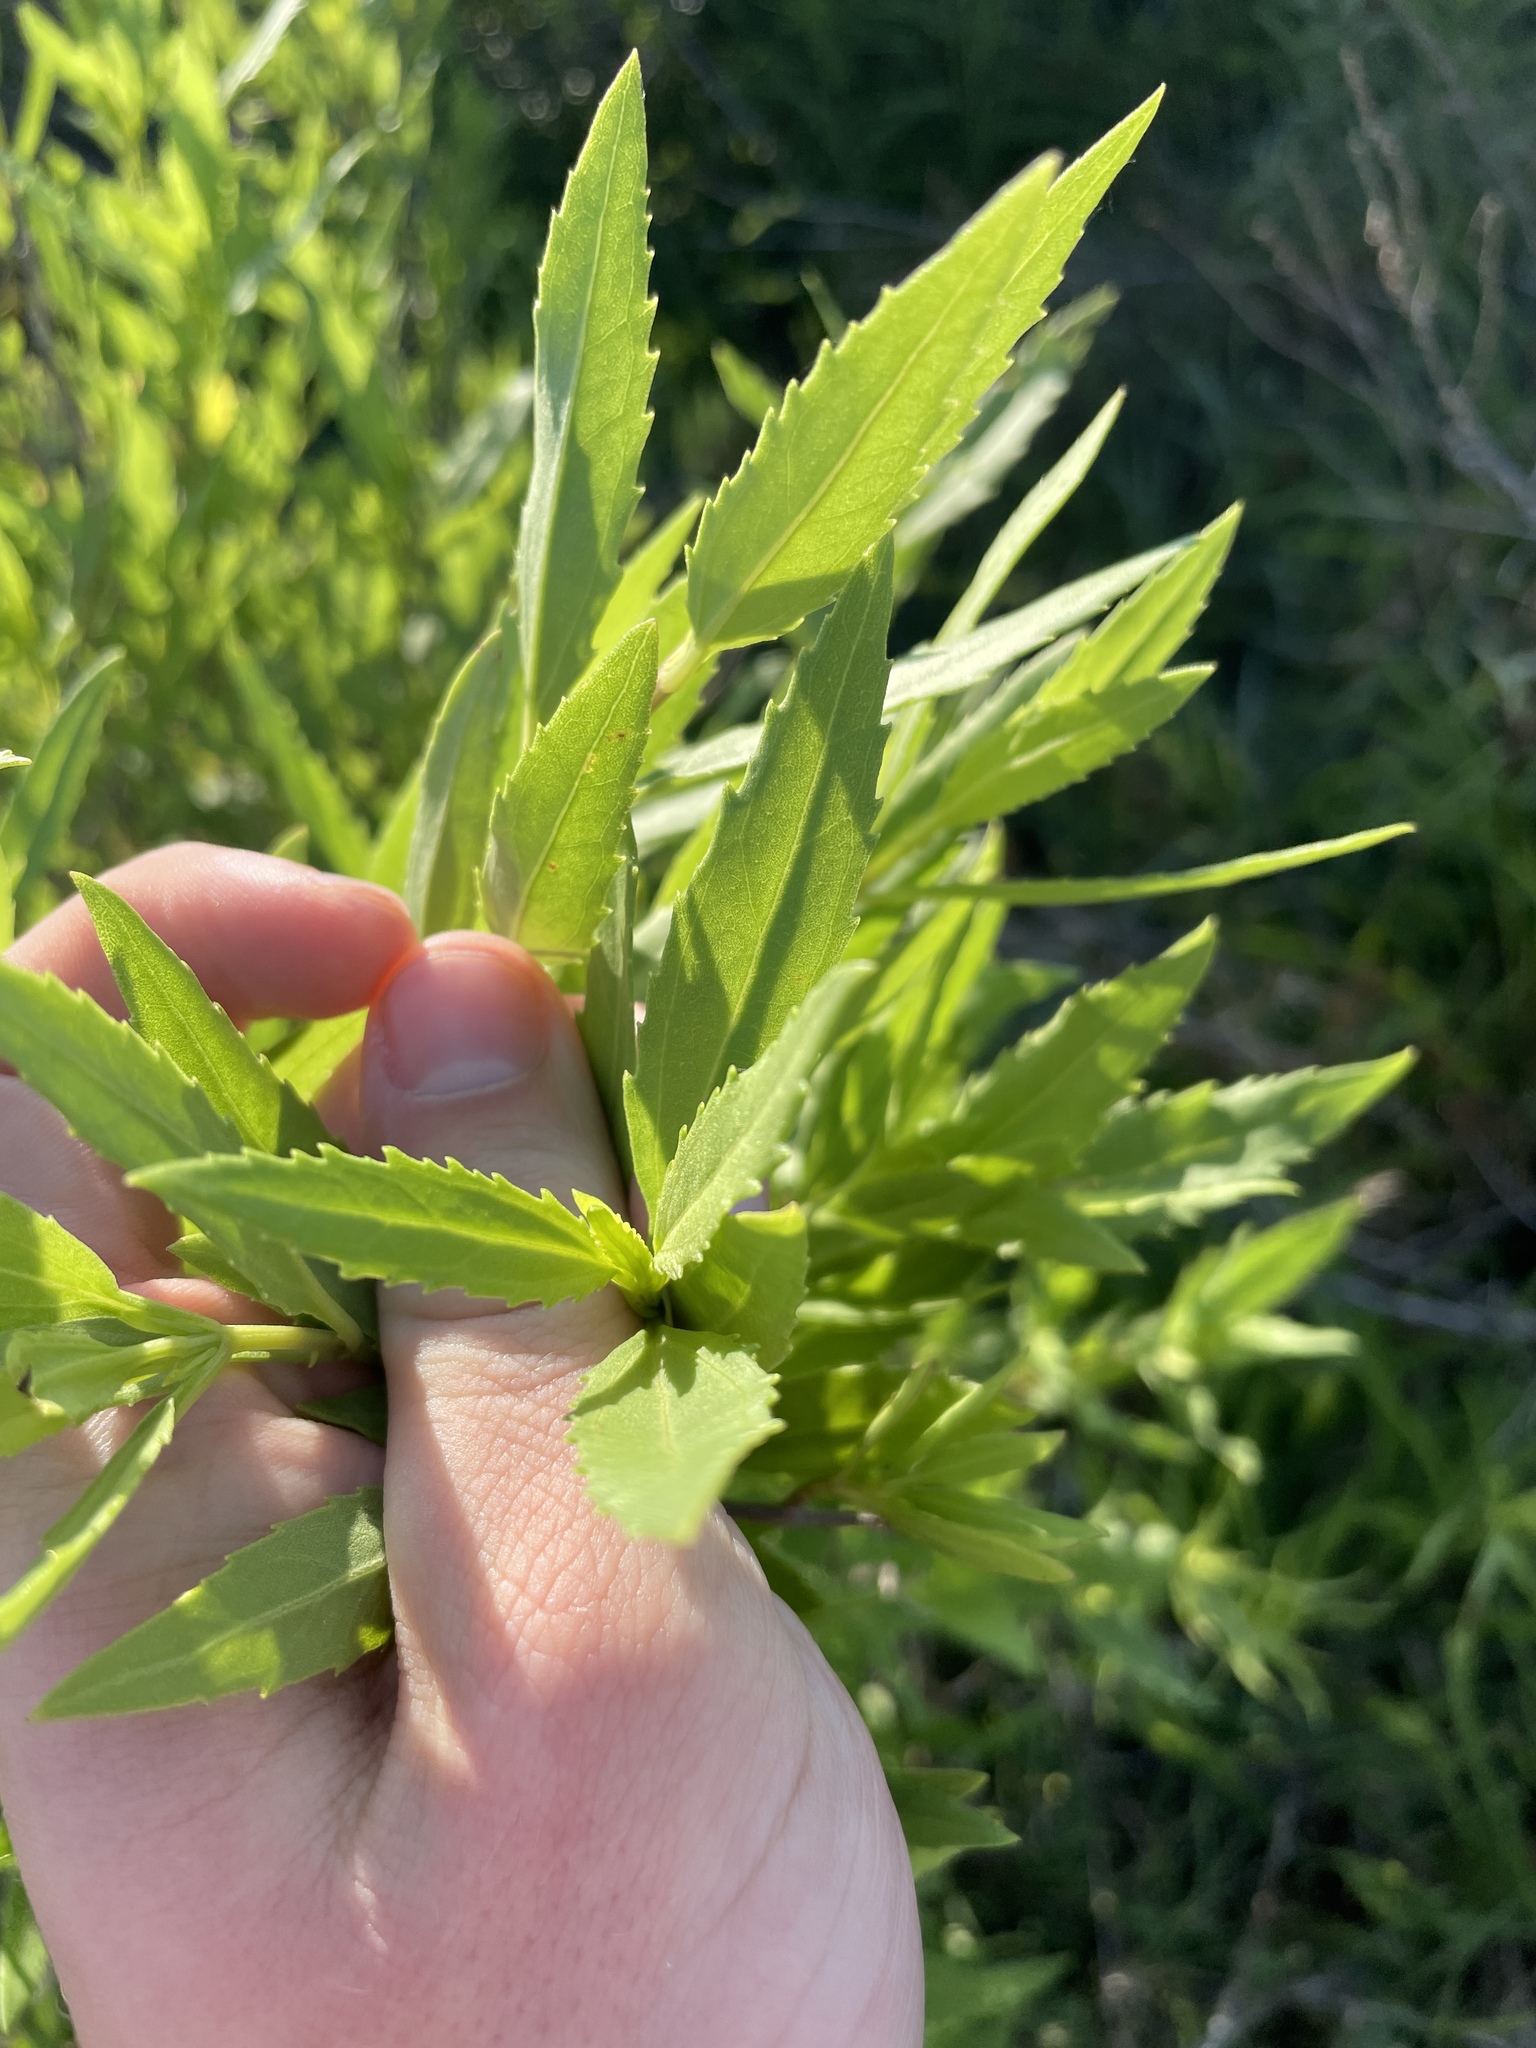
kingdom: Plantae
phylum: Tracheophyta
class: Magnoliopsida
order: Asterales
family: Asteraceae
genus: Iva
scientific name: Iva frutescens
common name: Big-leaved marsh-elder
